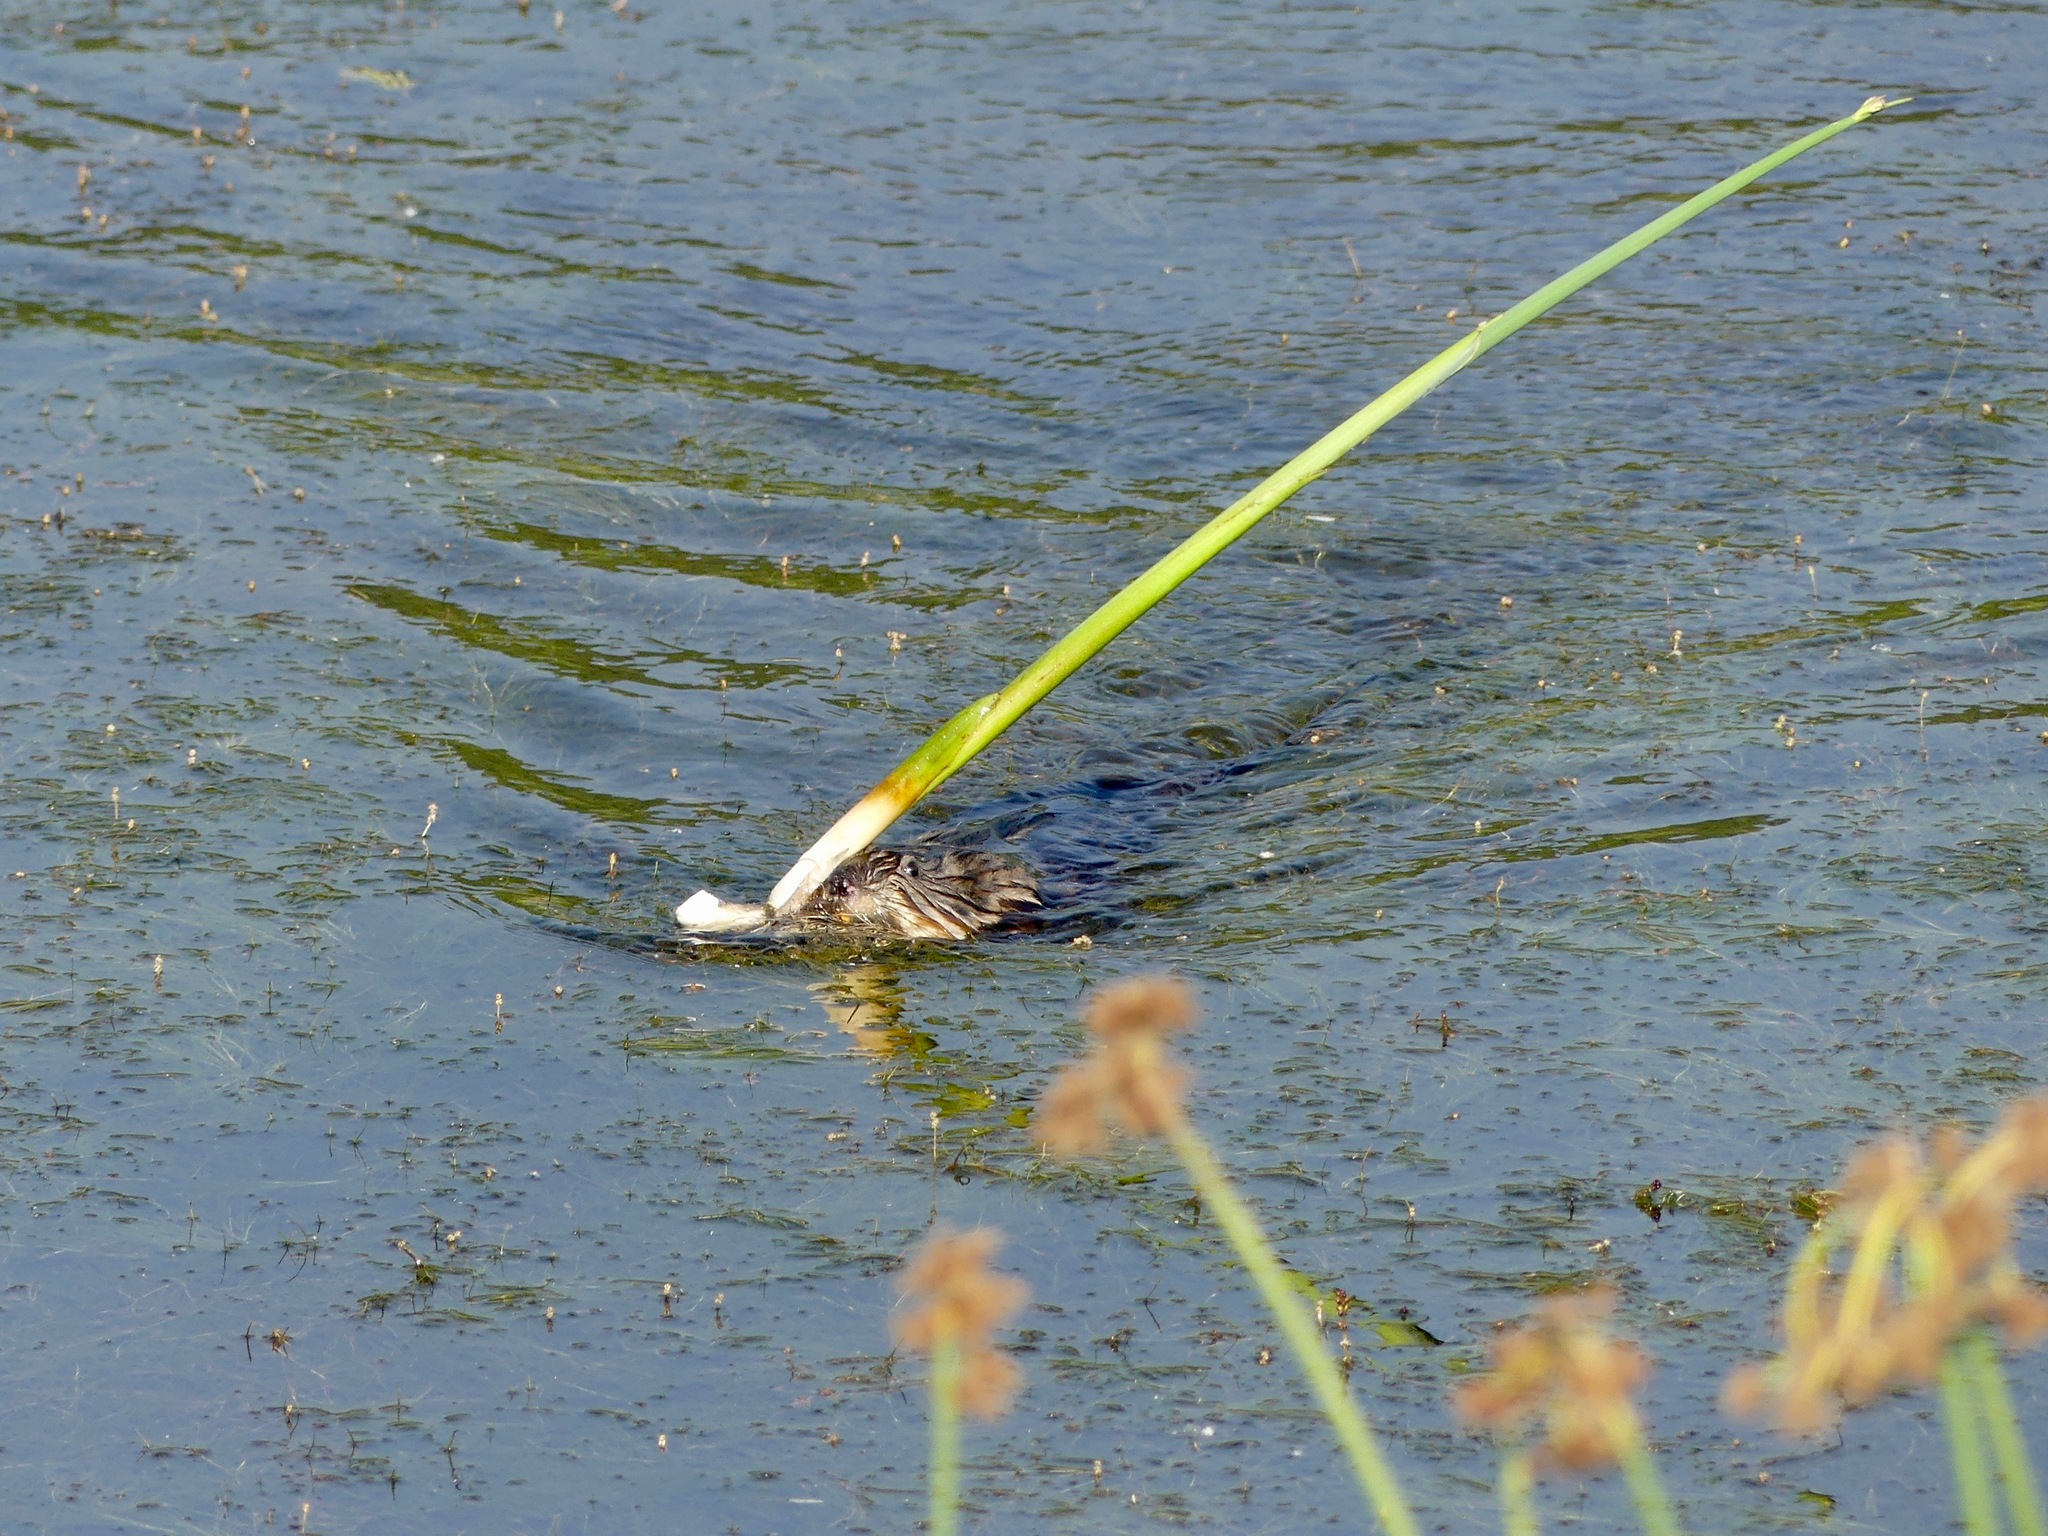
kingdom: Animalia
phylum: Chordata
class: Mammalia
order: Rodentia
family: Cricetidae
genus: Ondatra
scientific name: Ondatra zibethicus
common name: Muskrat
